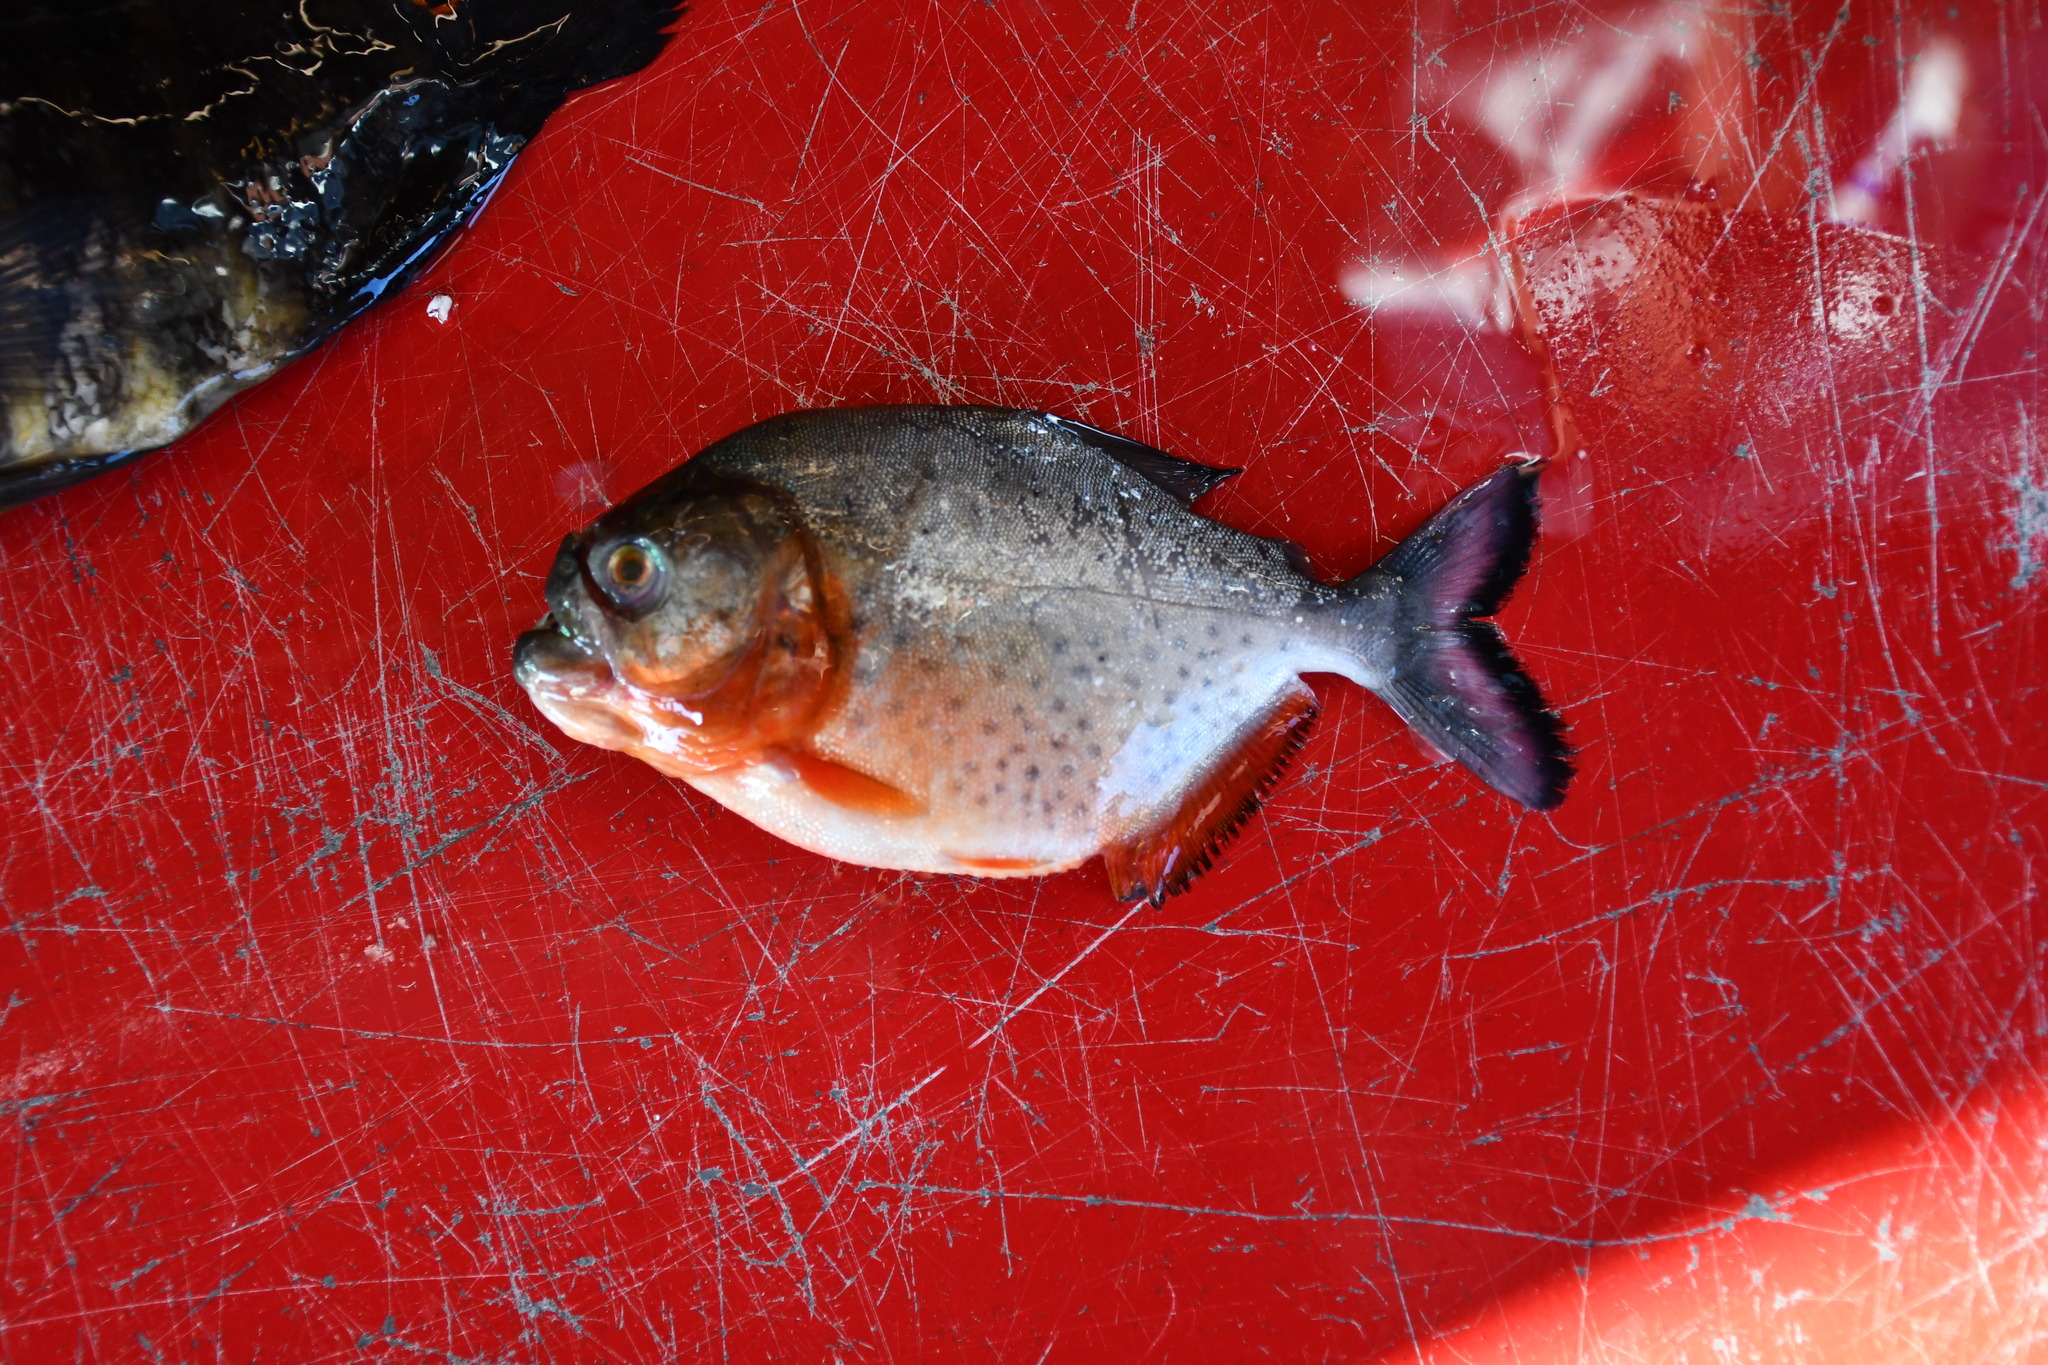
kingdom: Animalia
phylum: Chordata
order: Characiformes
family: Serrasalmidae
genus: Pygocentrus
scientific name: Pygocentrus nattereri
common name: Piranha
